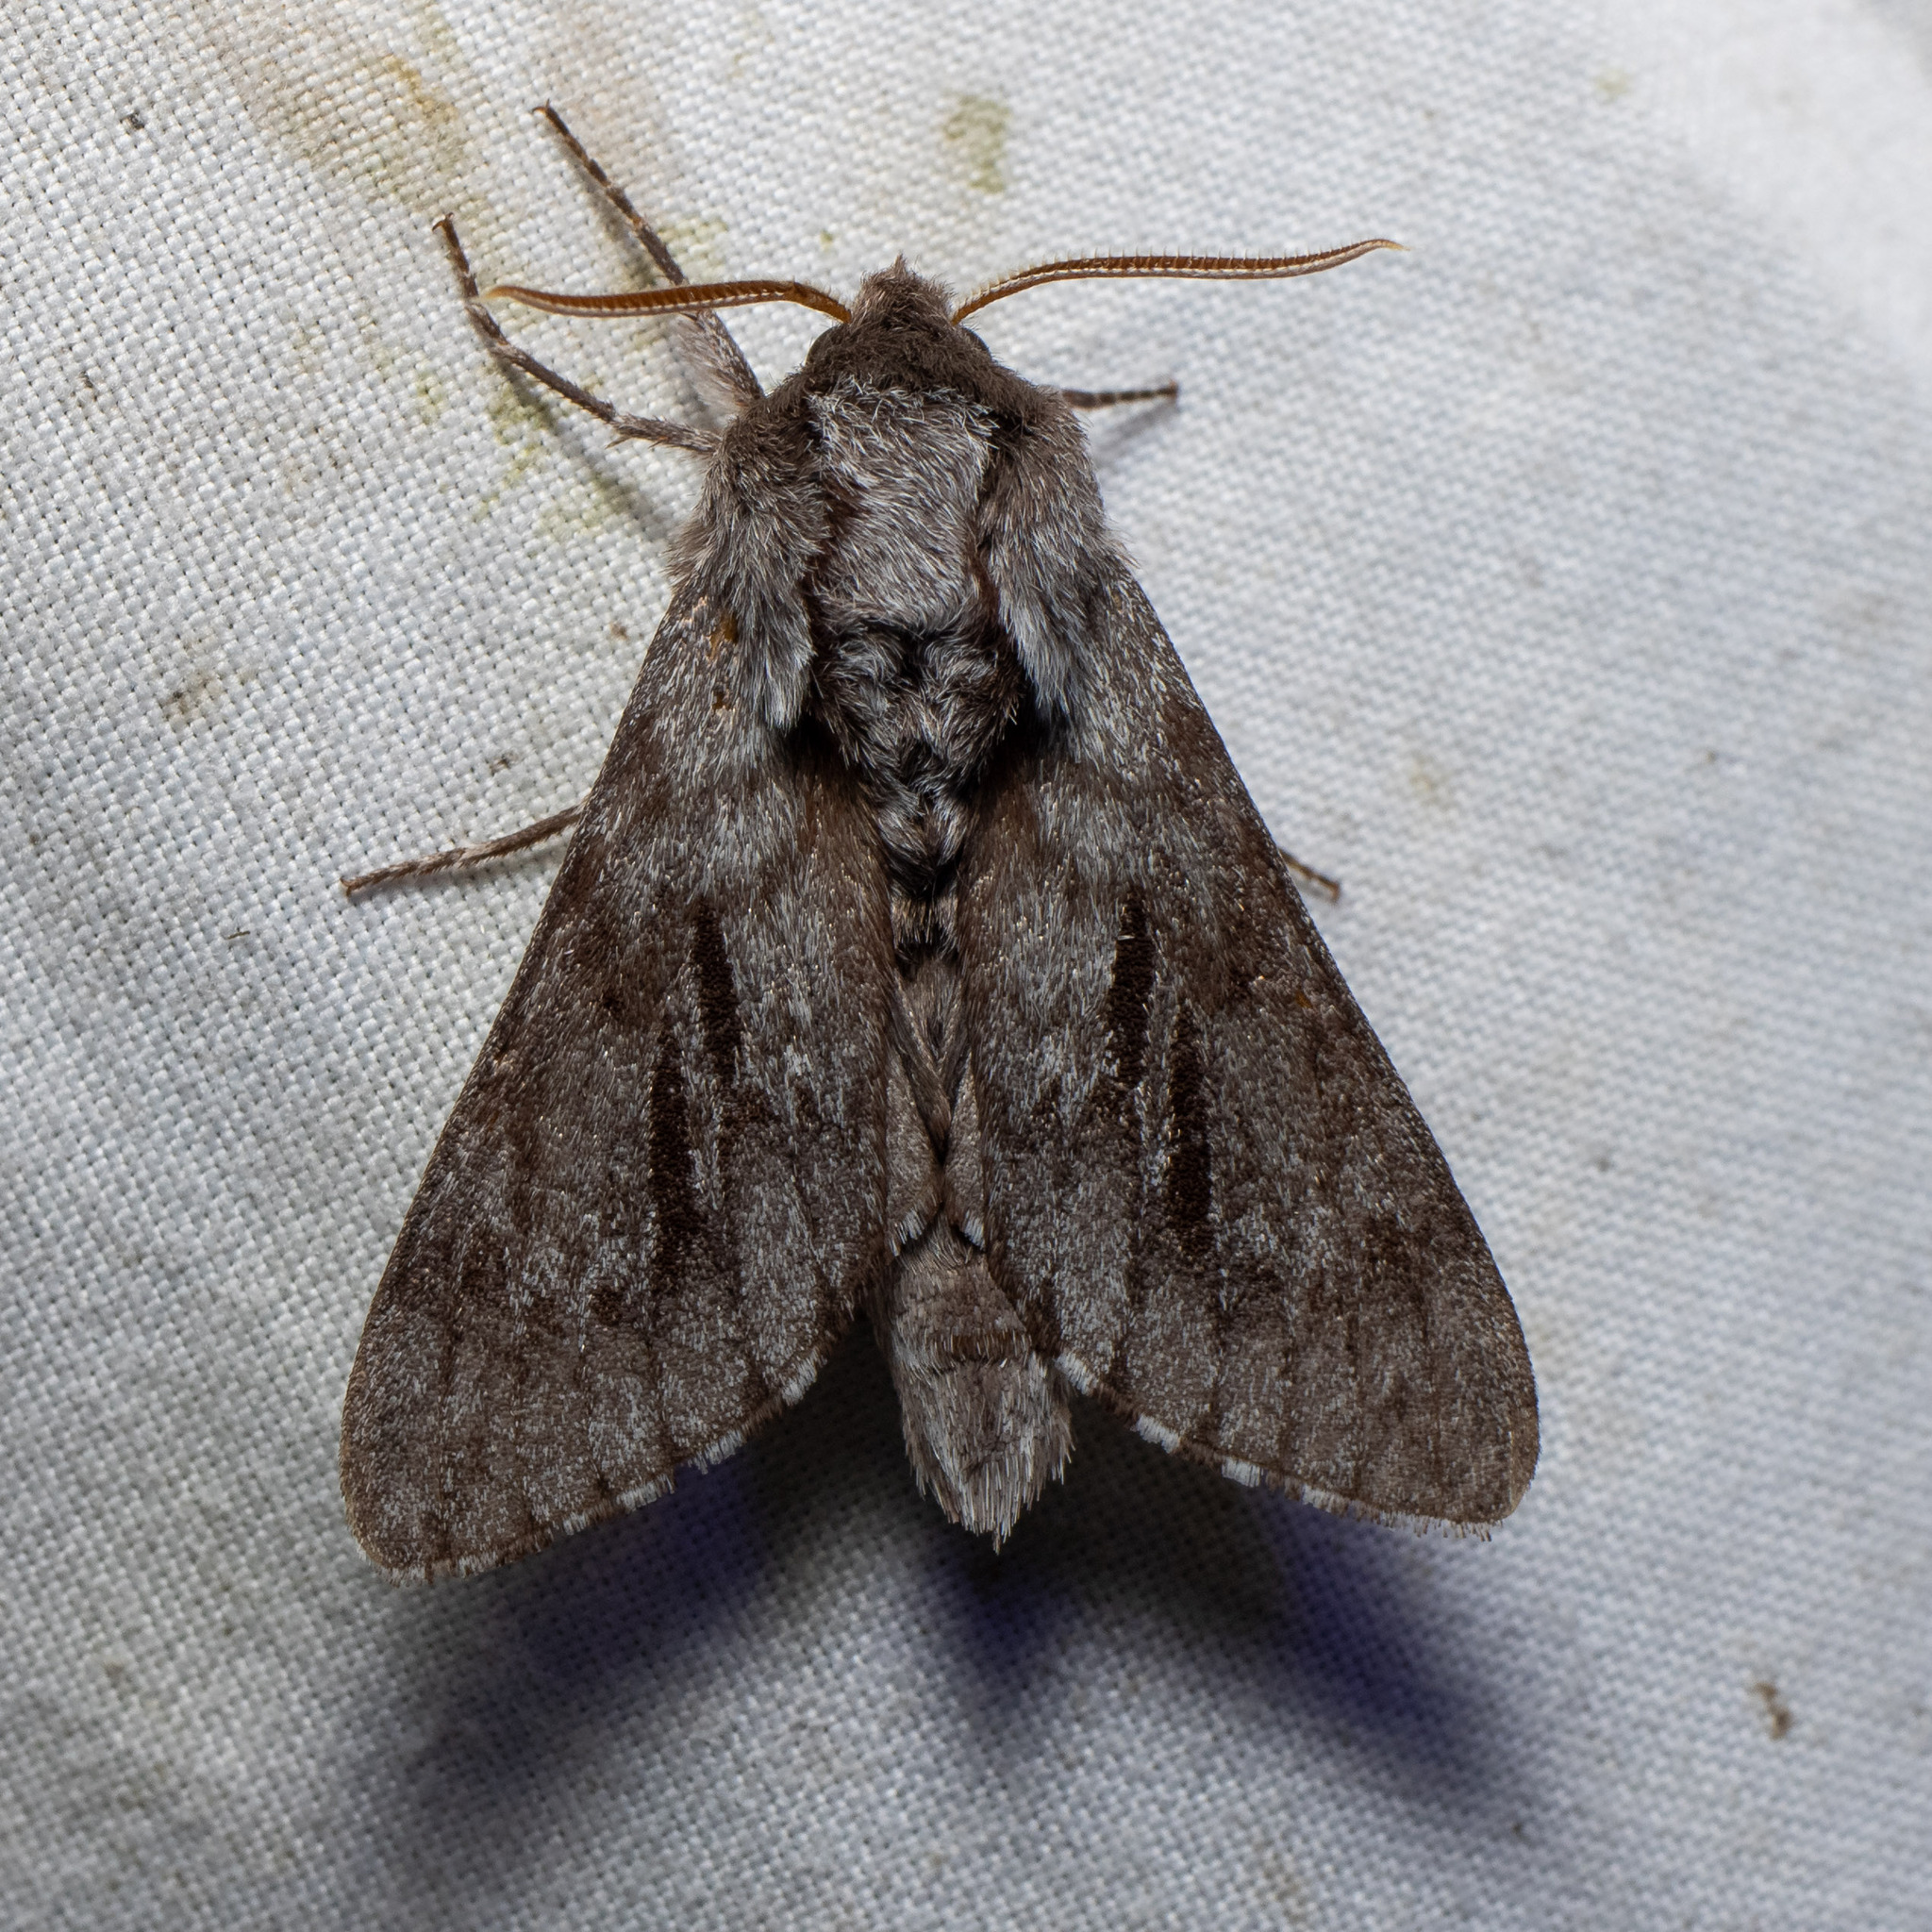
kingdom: Animalia
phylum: Arthropoda
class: Insecta
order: Lepidoptera
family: Sphingidae
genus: Lapara
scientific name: Lapara bombycoides
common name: Northern pine sphinx
